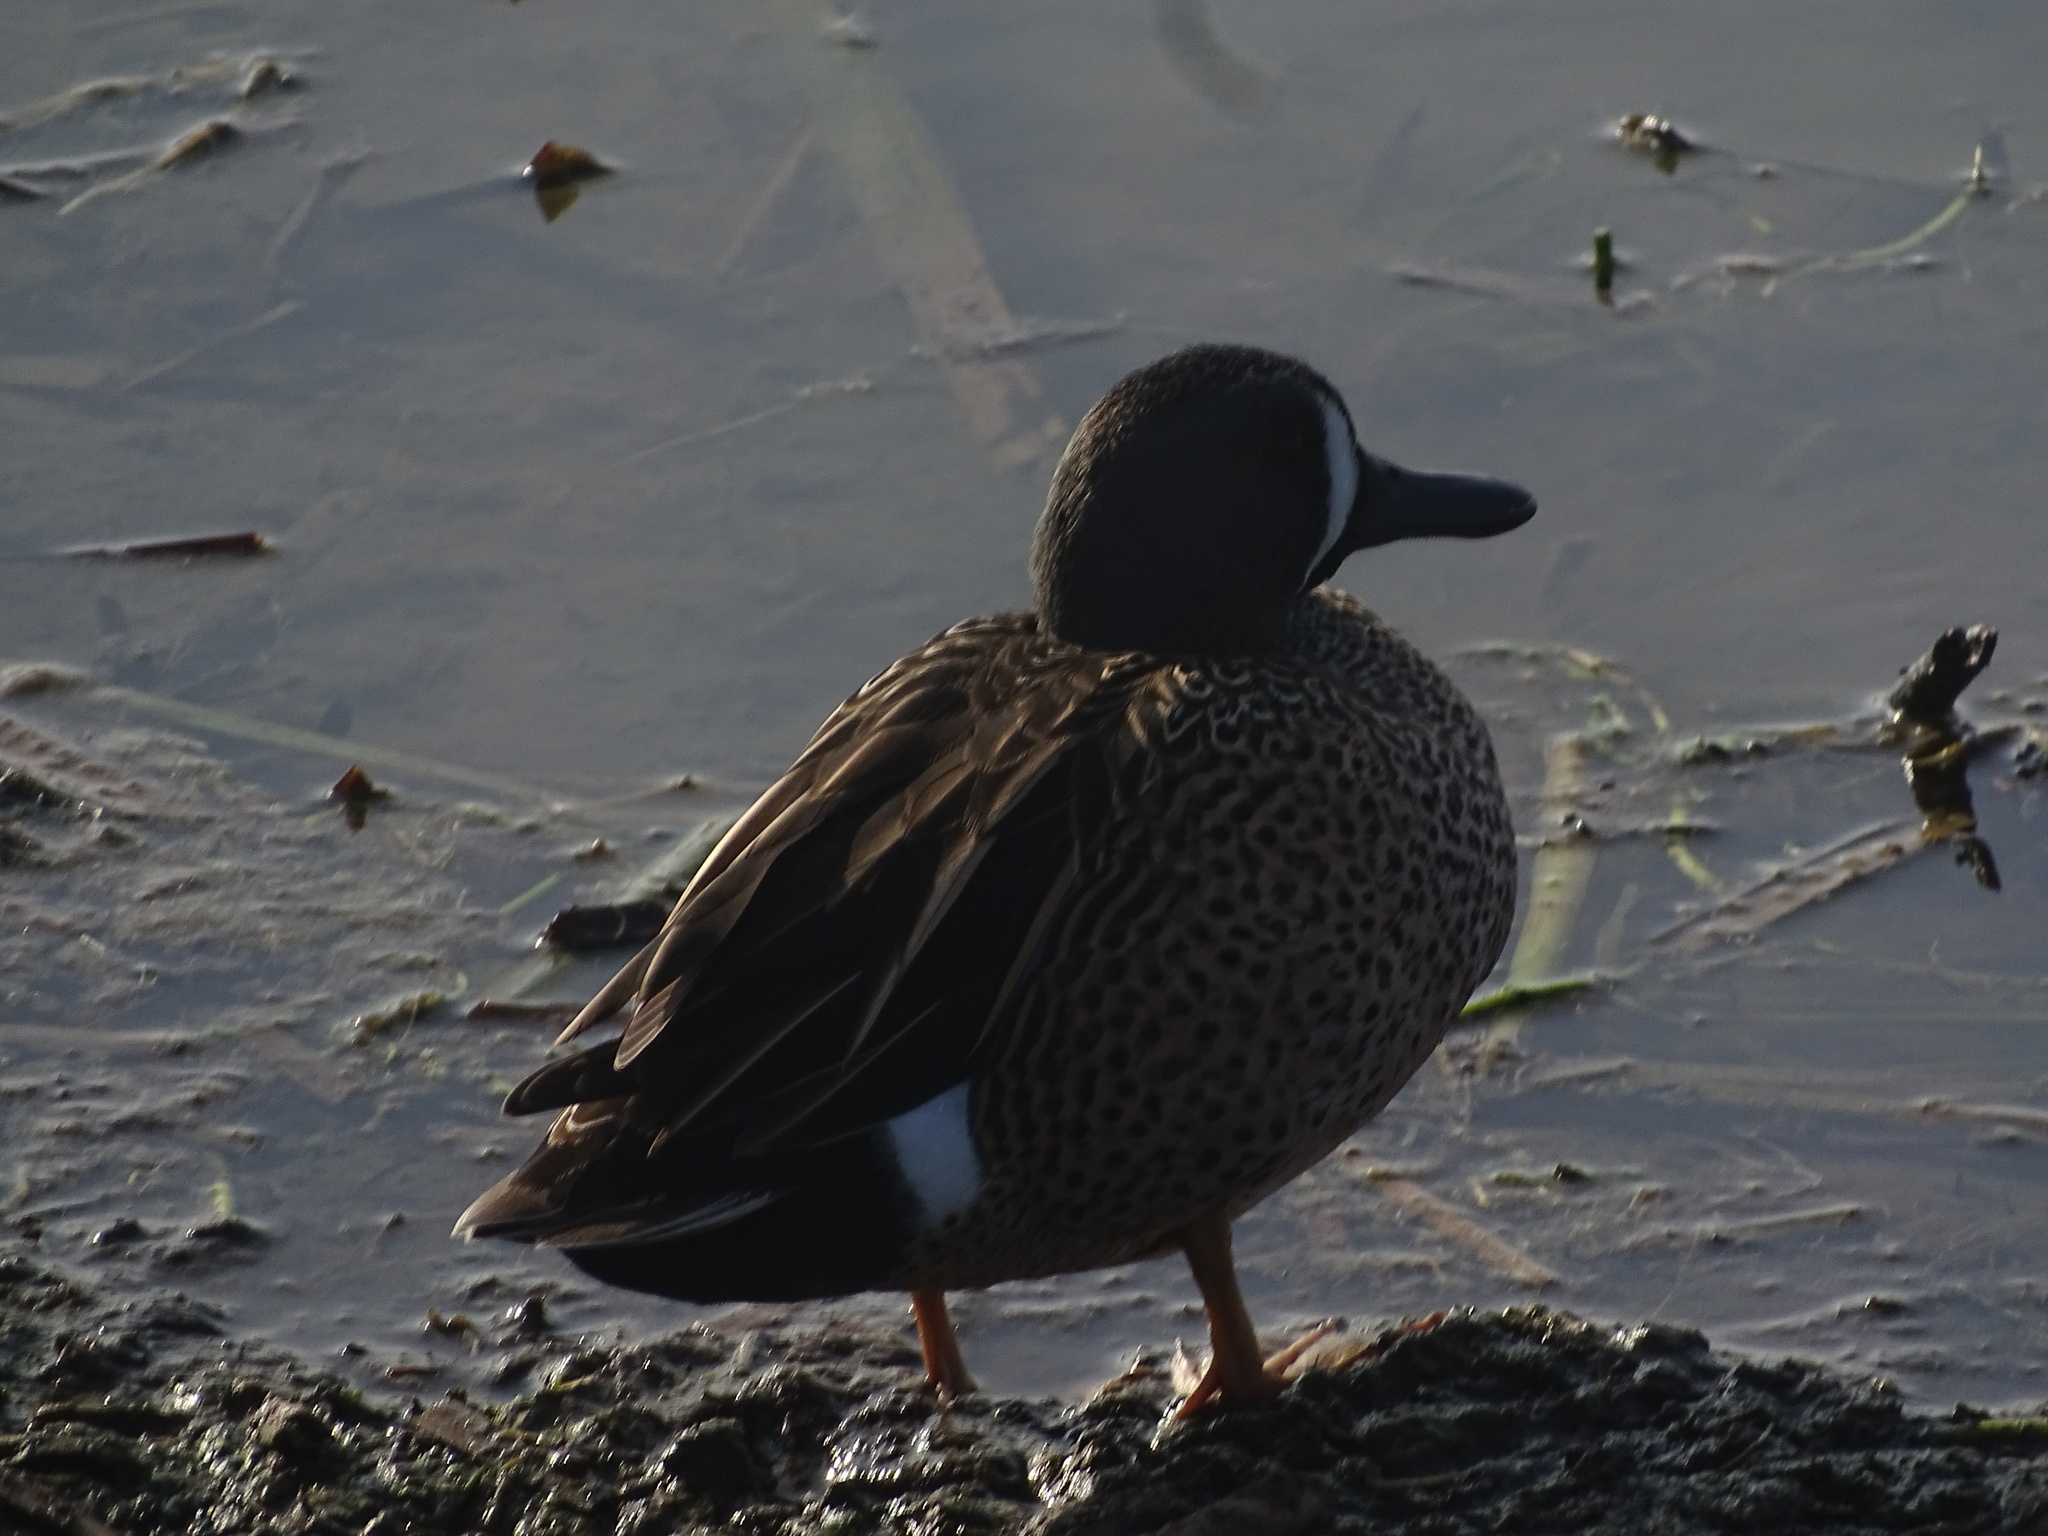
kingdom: Animalia
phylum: Chordata
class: Aves
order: Anseriformes
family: Anatidae
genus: Spatula
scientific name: Spatula discors
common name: Blue-winged teal
